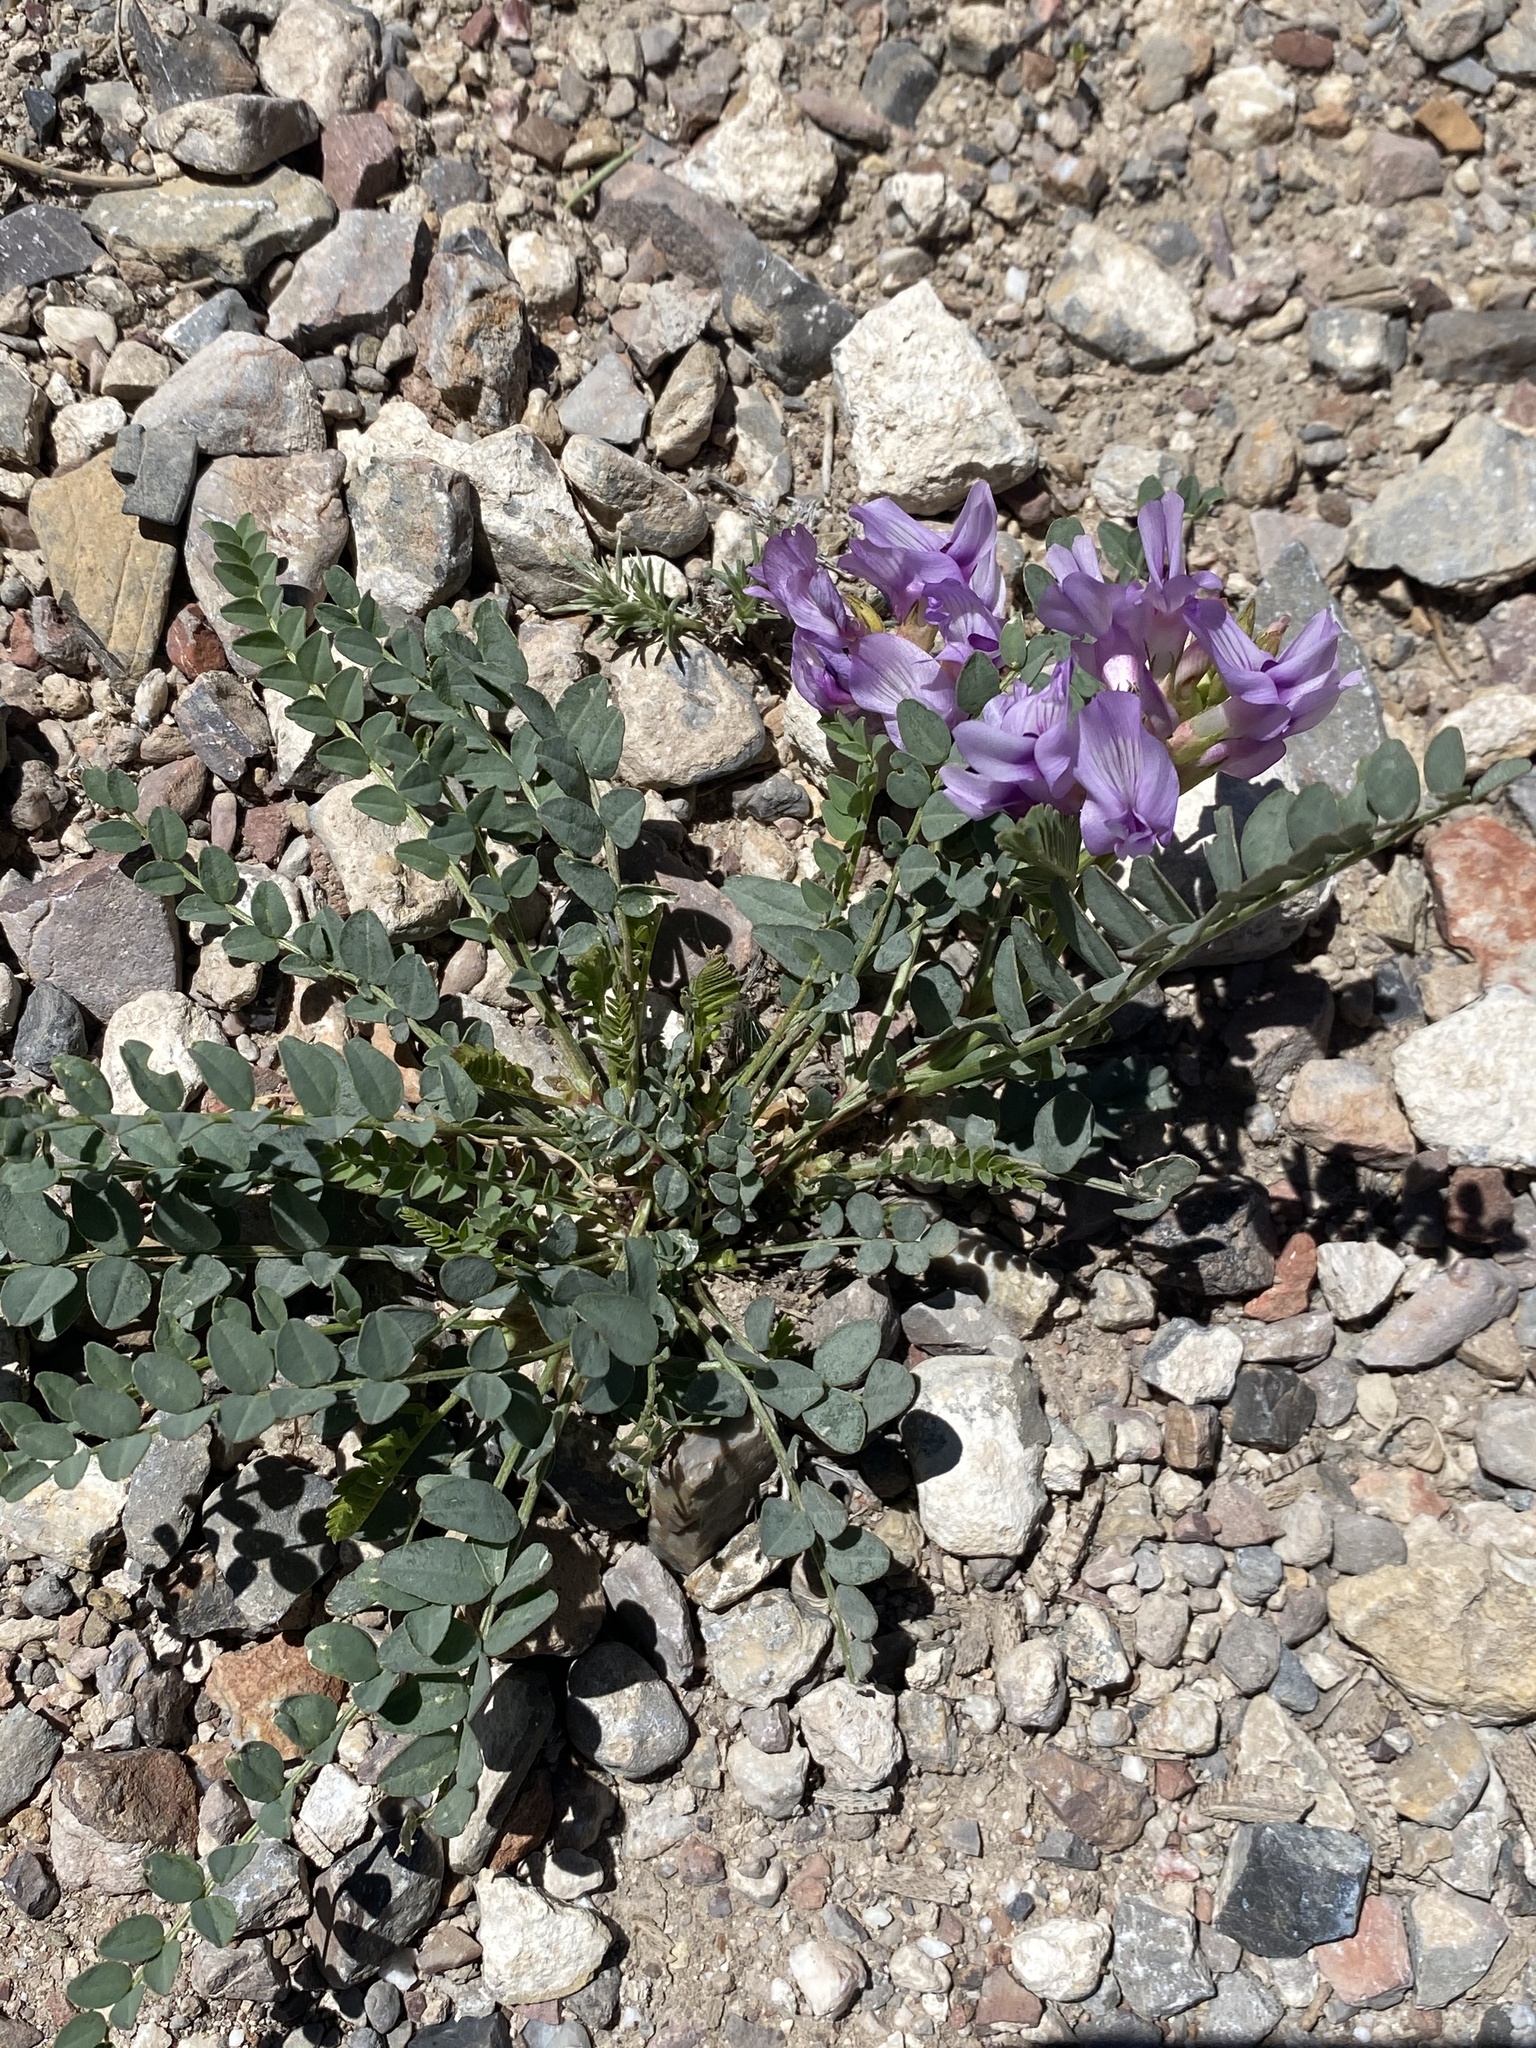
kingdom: Plantae
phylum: Tracheophyta
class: Magnoliopsida
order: Fabales
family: Fabaceae
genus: Astragalus
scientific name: Astragalus beckwithii
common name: Beckwith's milk-vetch
